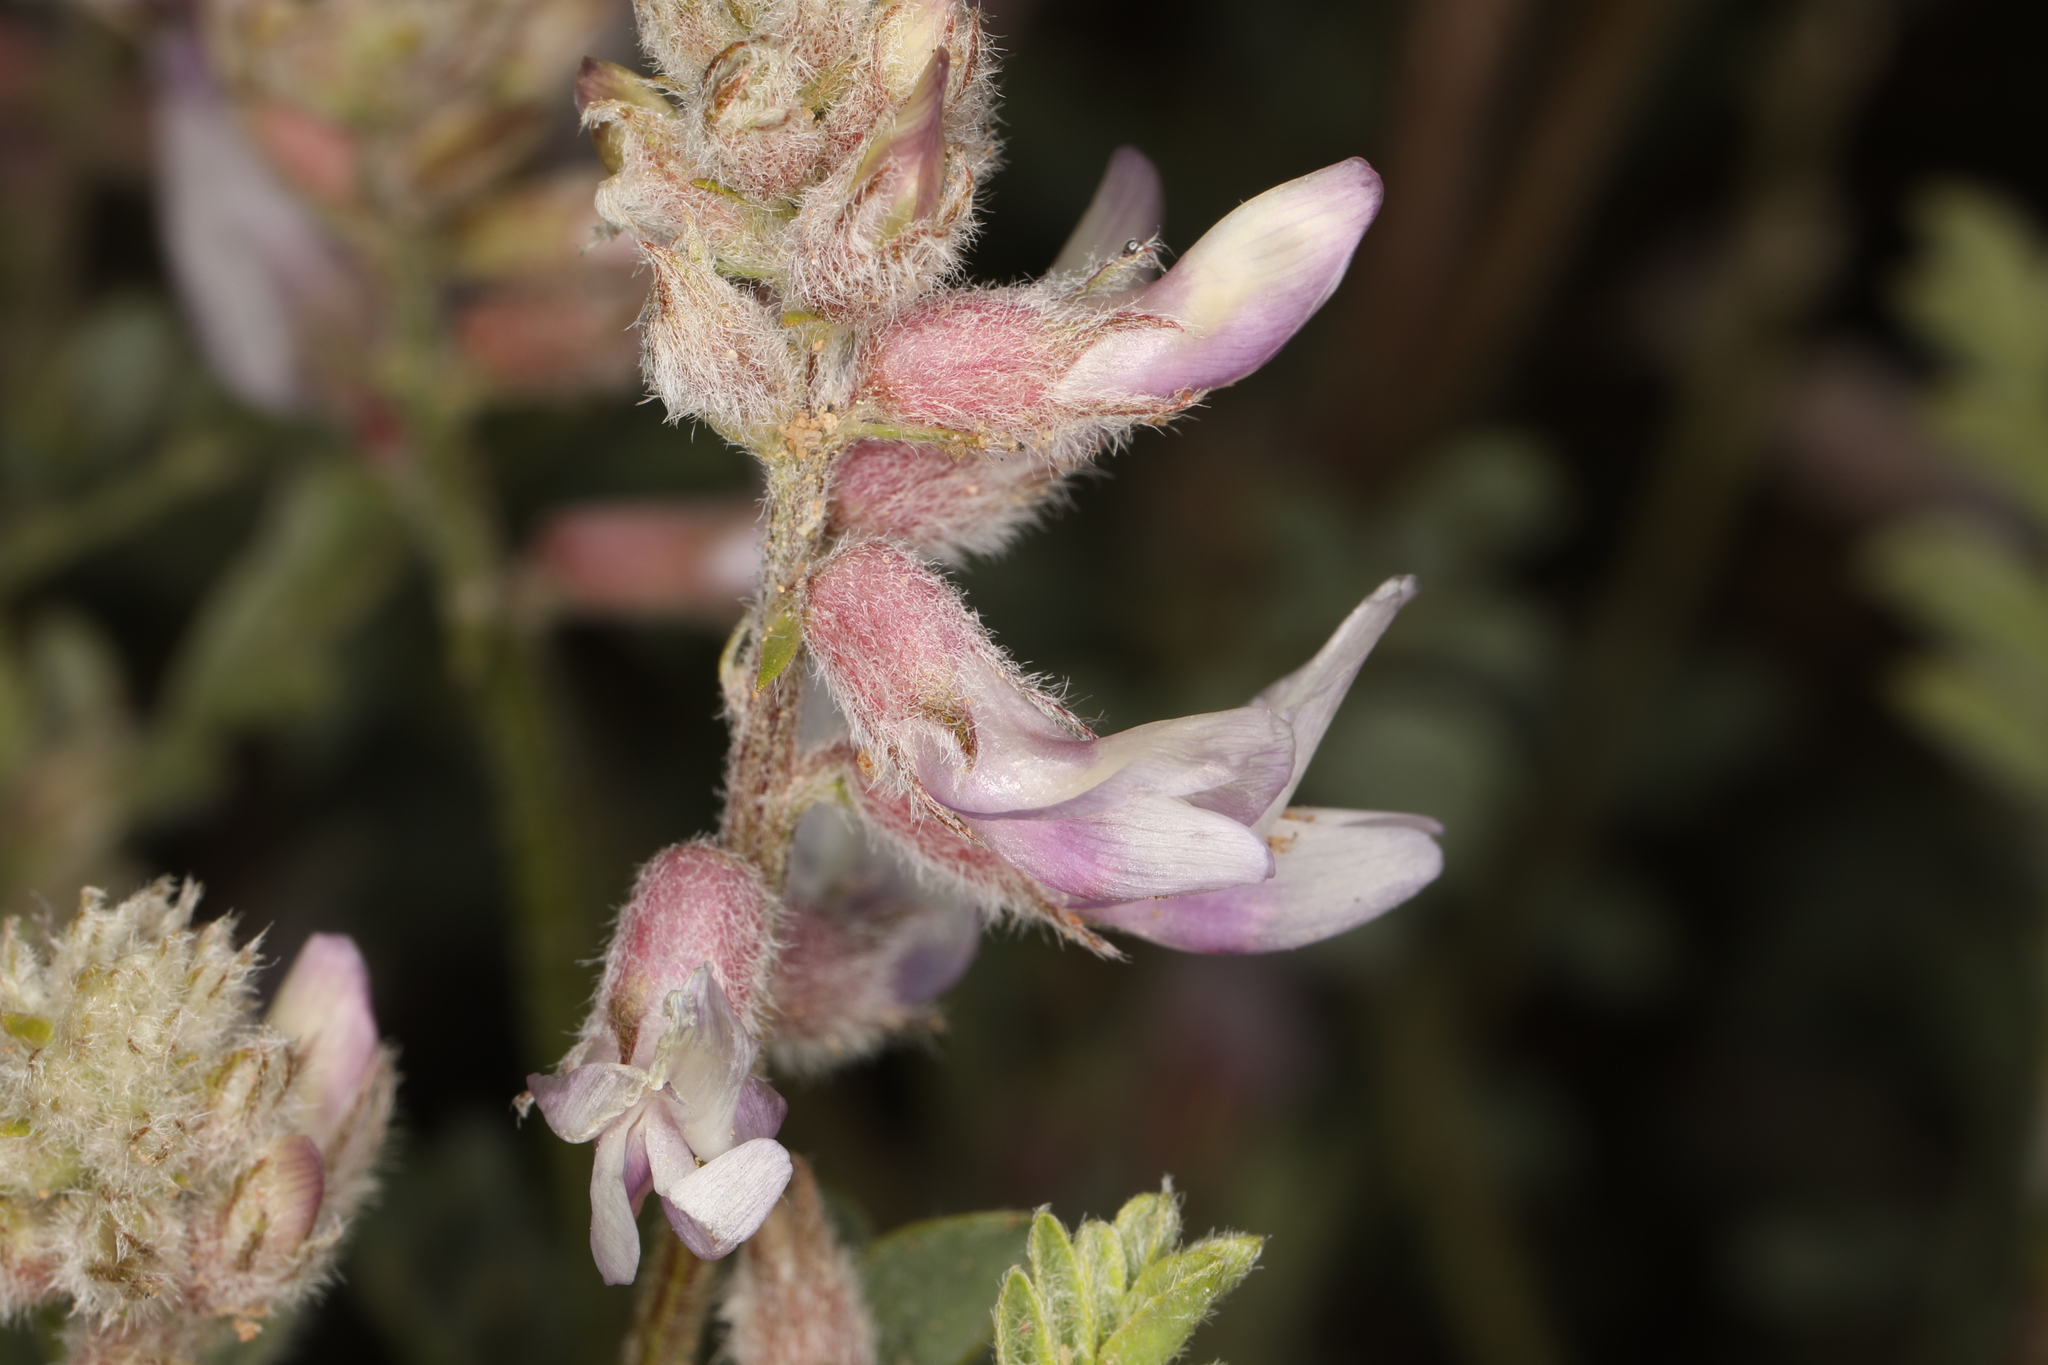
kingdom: Plantae
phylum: Tracheophyta
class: Magnoliopsida
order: Fabales
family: Fabaceae
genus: Astragalus
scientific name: Astragalus andersonii
